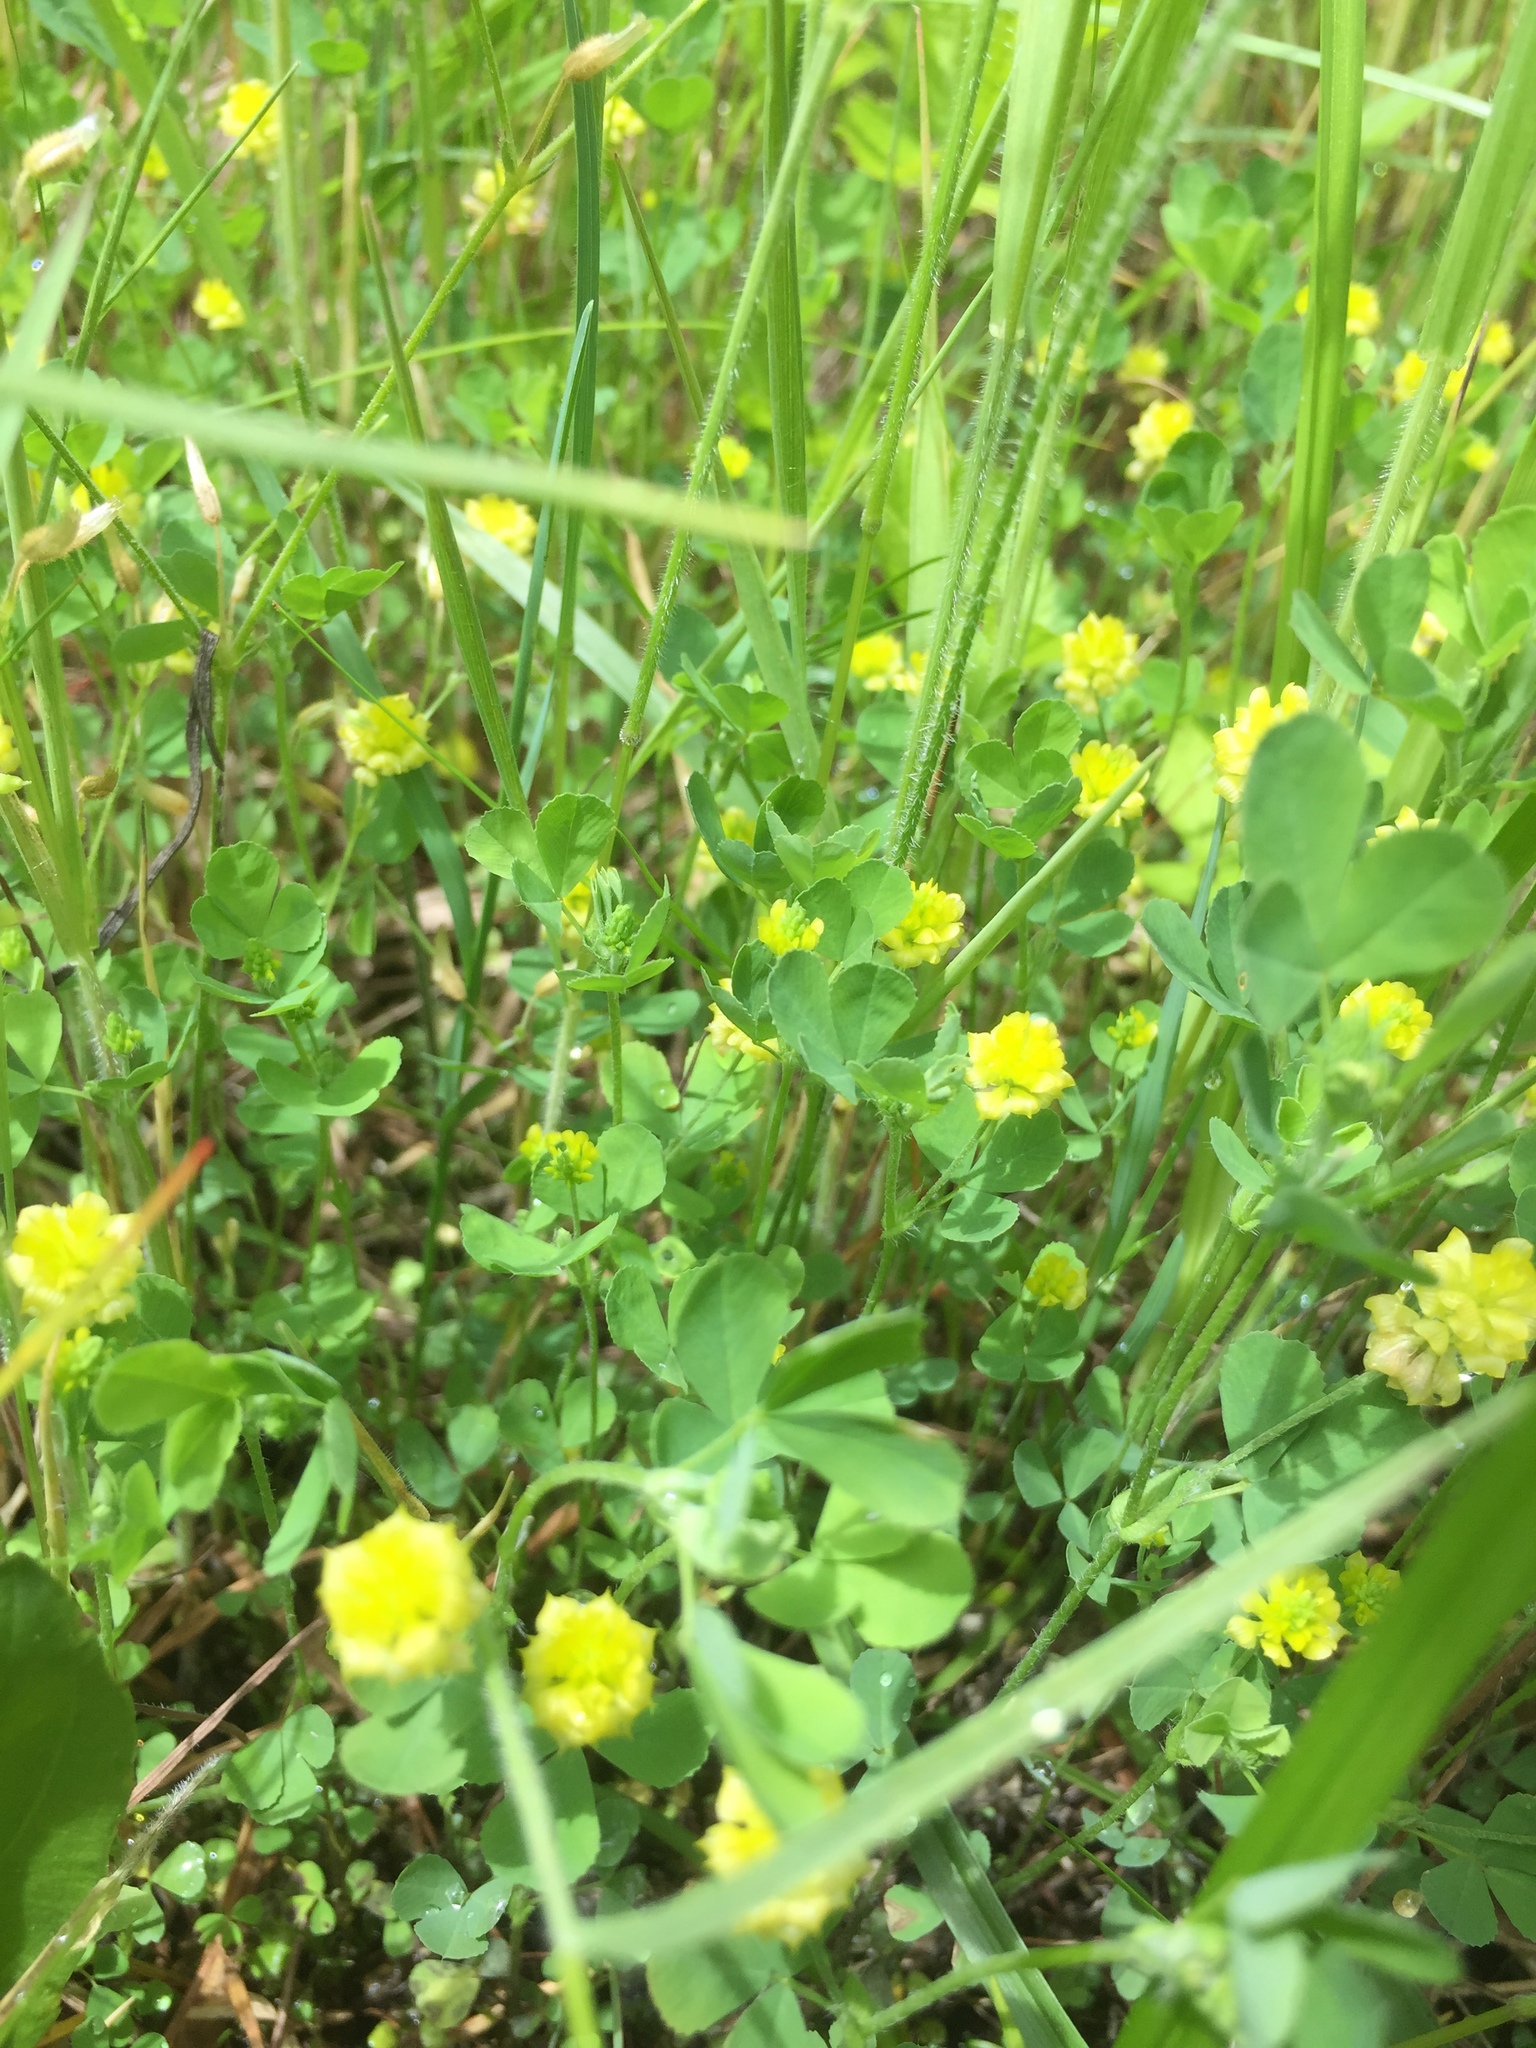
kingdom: Plantae
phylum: Tracheophyta
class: Magnoliopsida
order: Fabales
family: Fabaceae
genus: Trifolium
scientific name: Trifolium campestre
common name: Field clover
